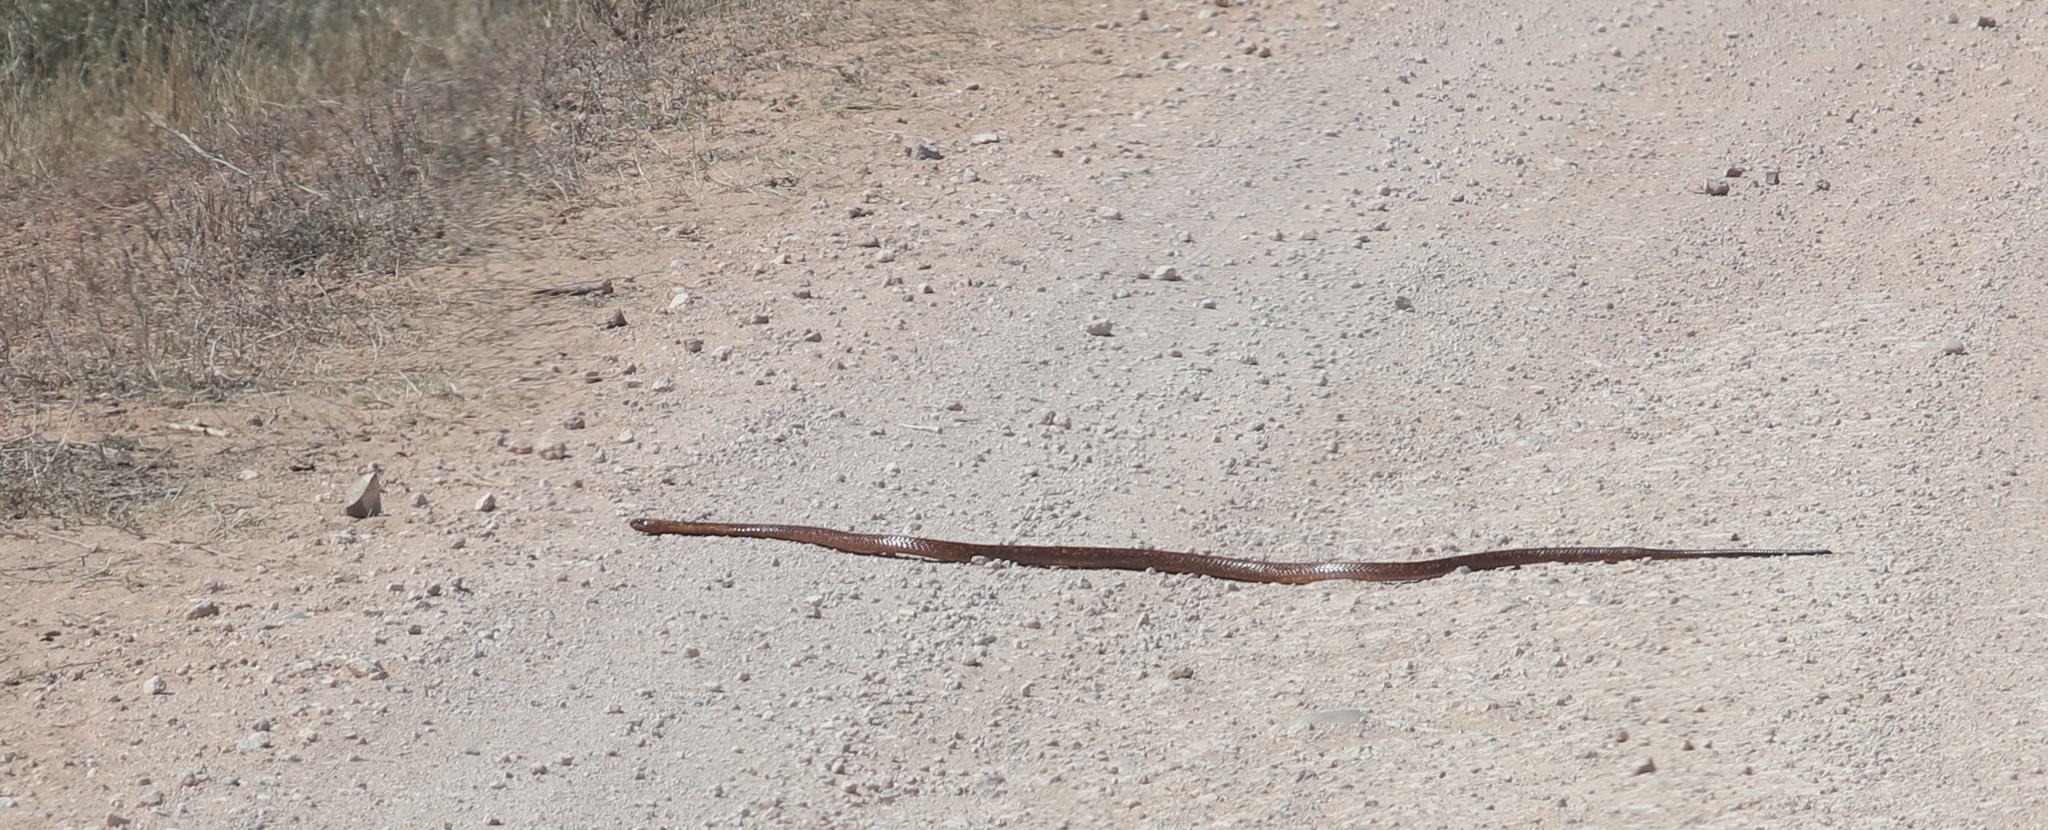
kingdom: Animalia
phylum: Chordata
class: Squamata
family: Elapidae
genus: Naja
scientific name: Naja nivea
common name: Cape cobra
